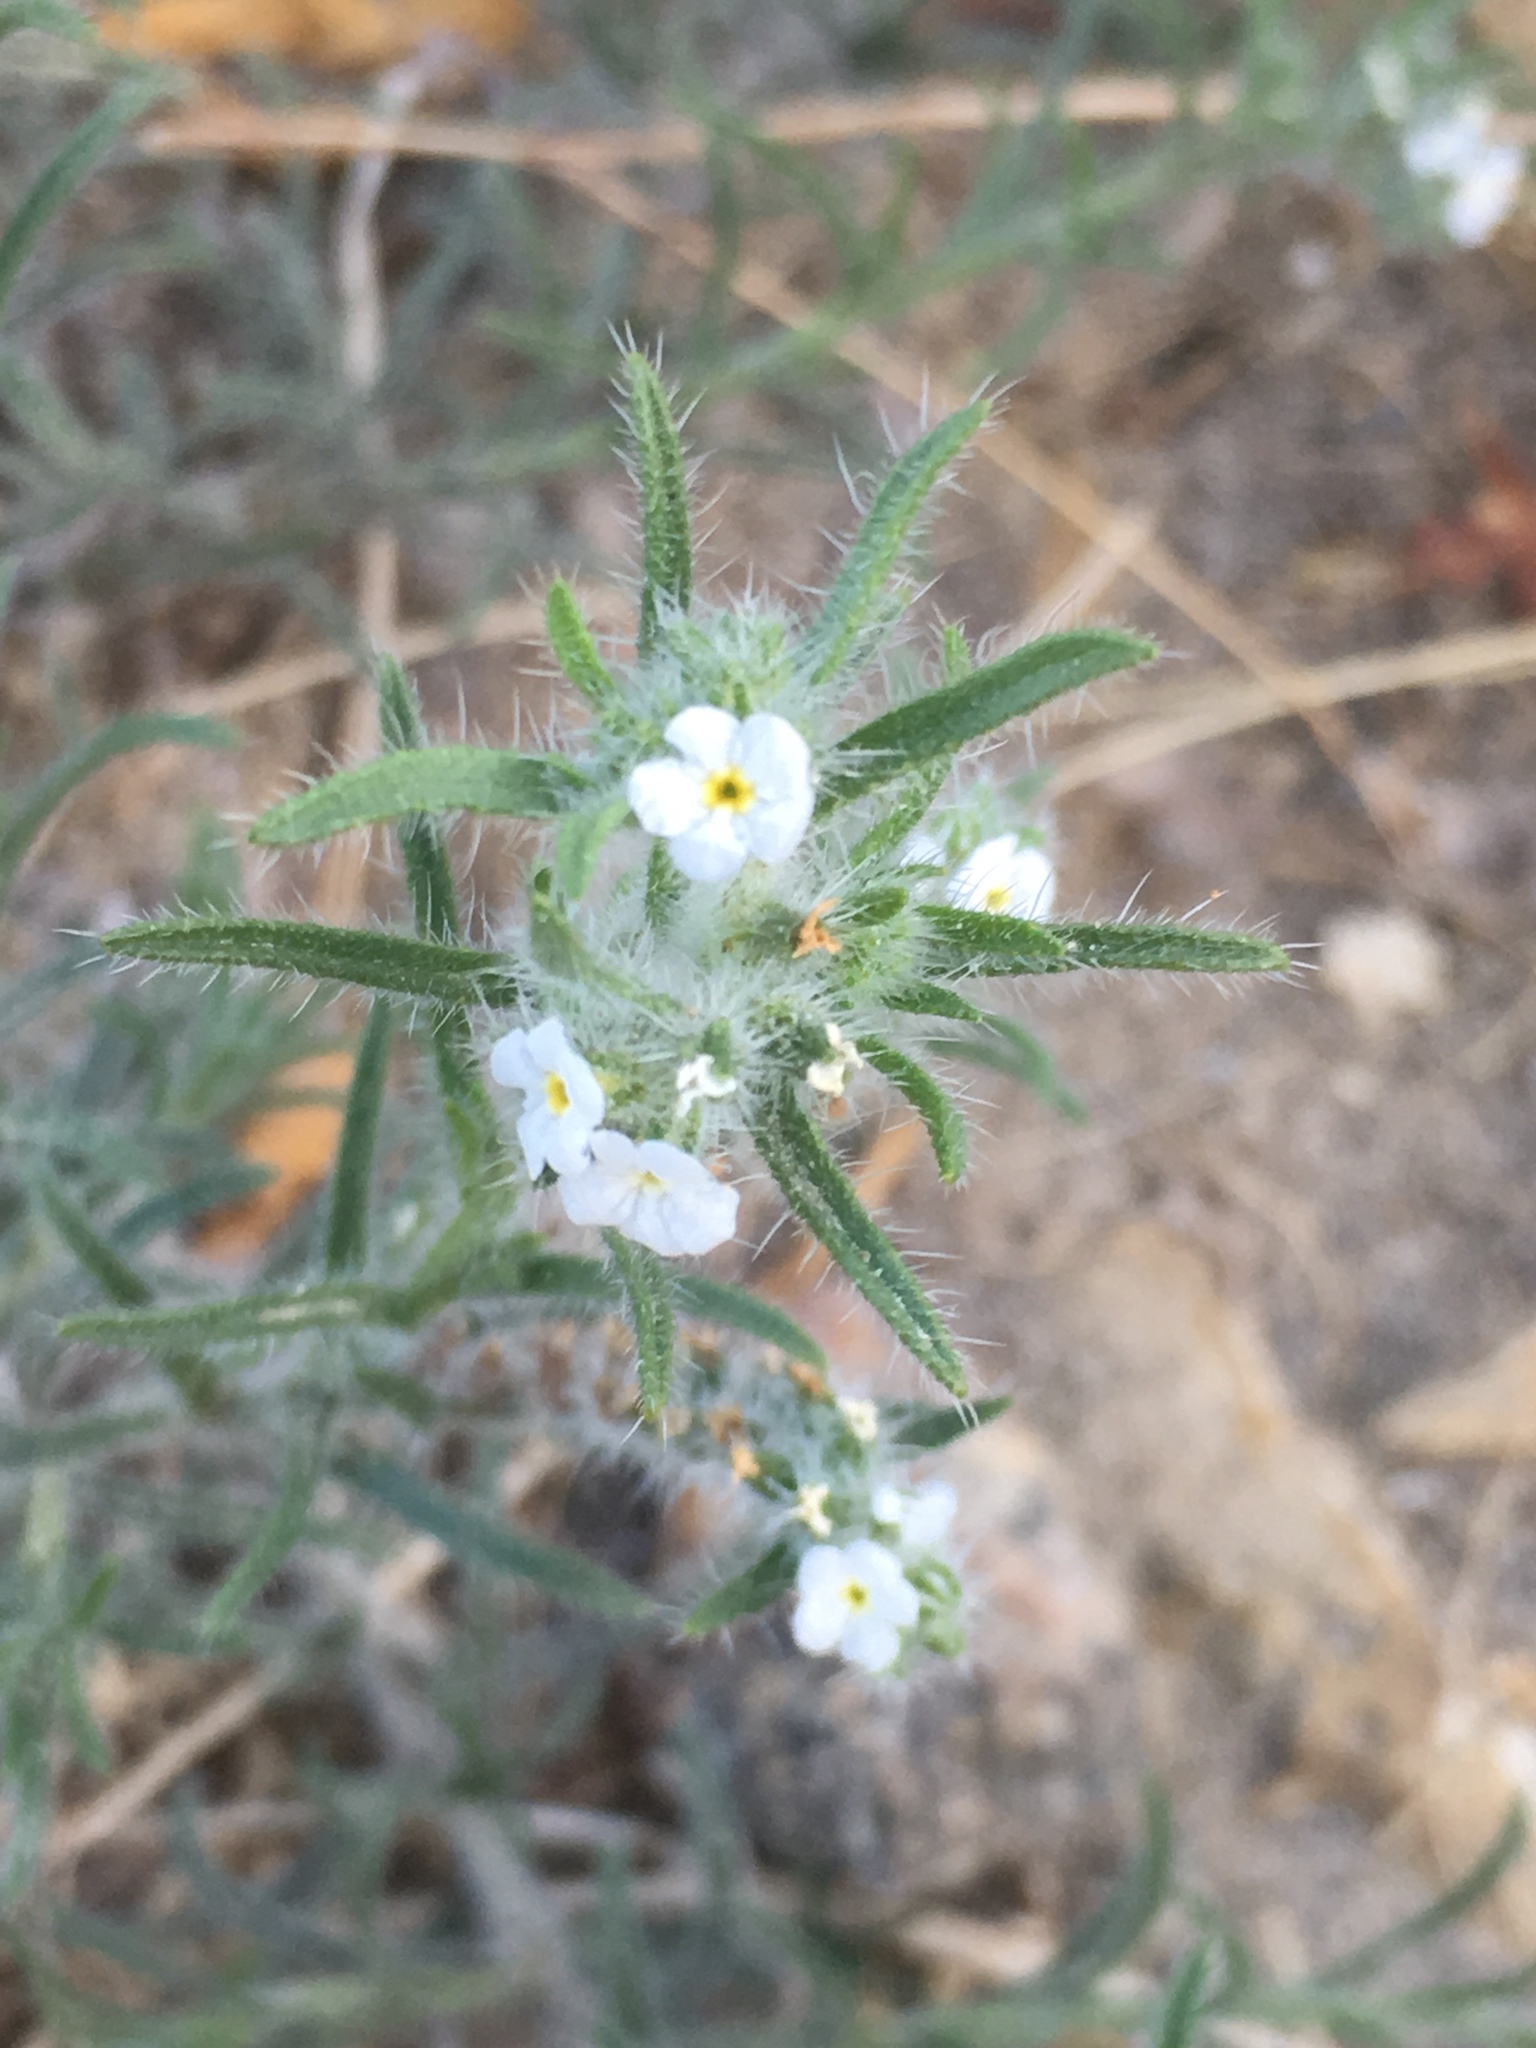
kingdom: Plantae
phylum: Tracheophyta
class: Magnoliopsida
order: Boraginales
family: Boraginaceae
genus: Johnstonella
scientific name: Johnstonella angustifolia
